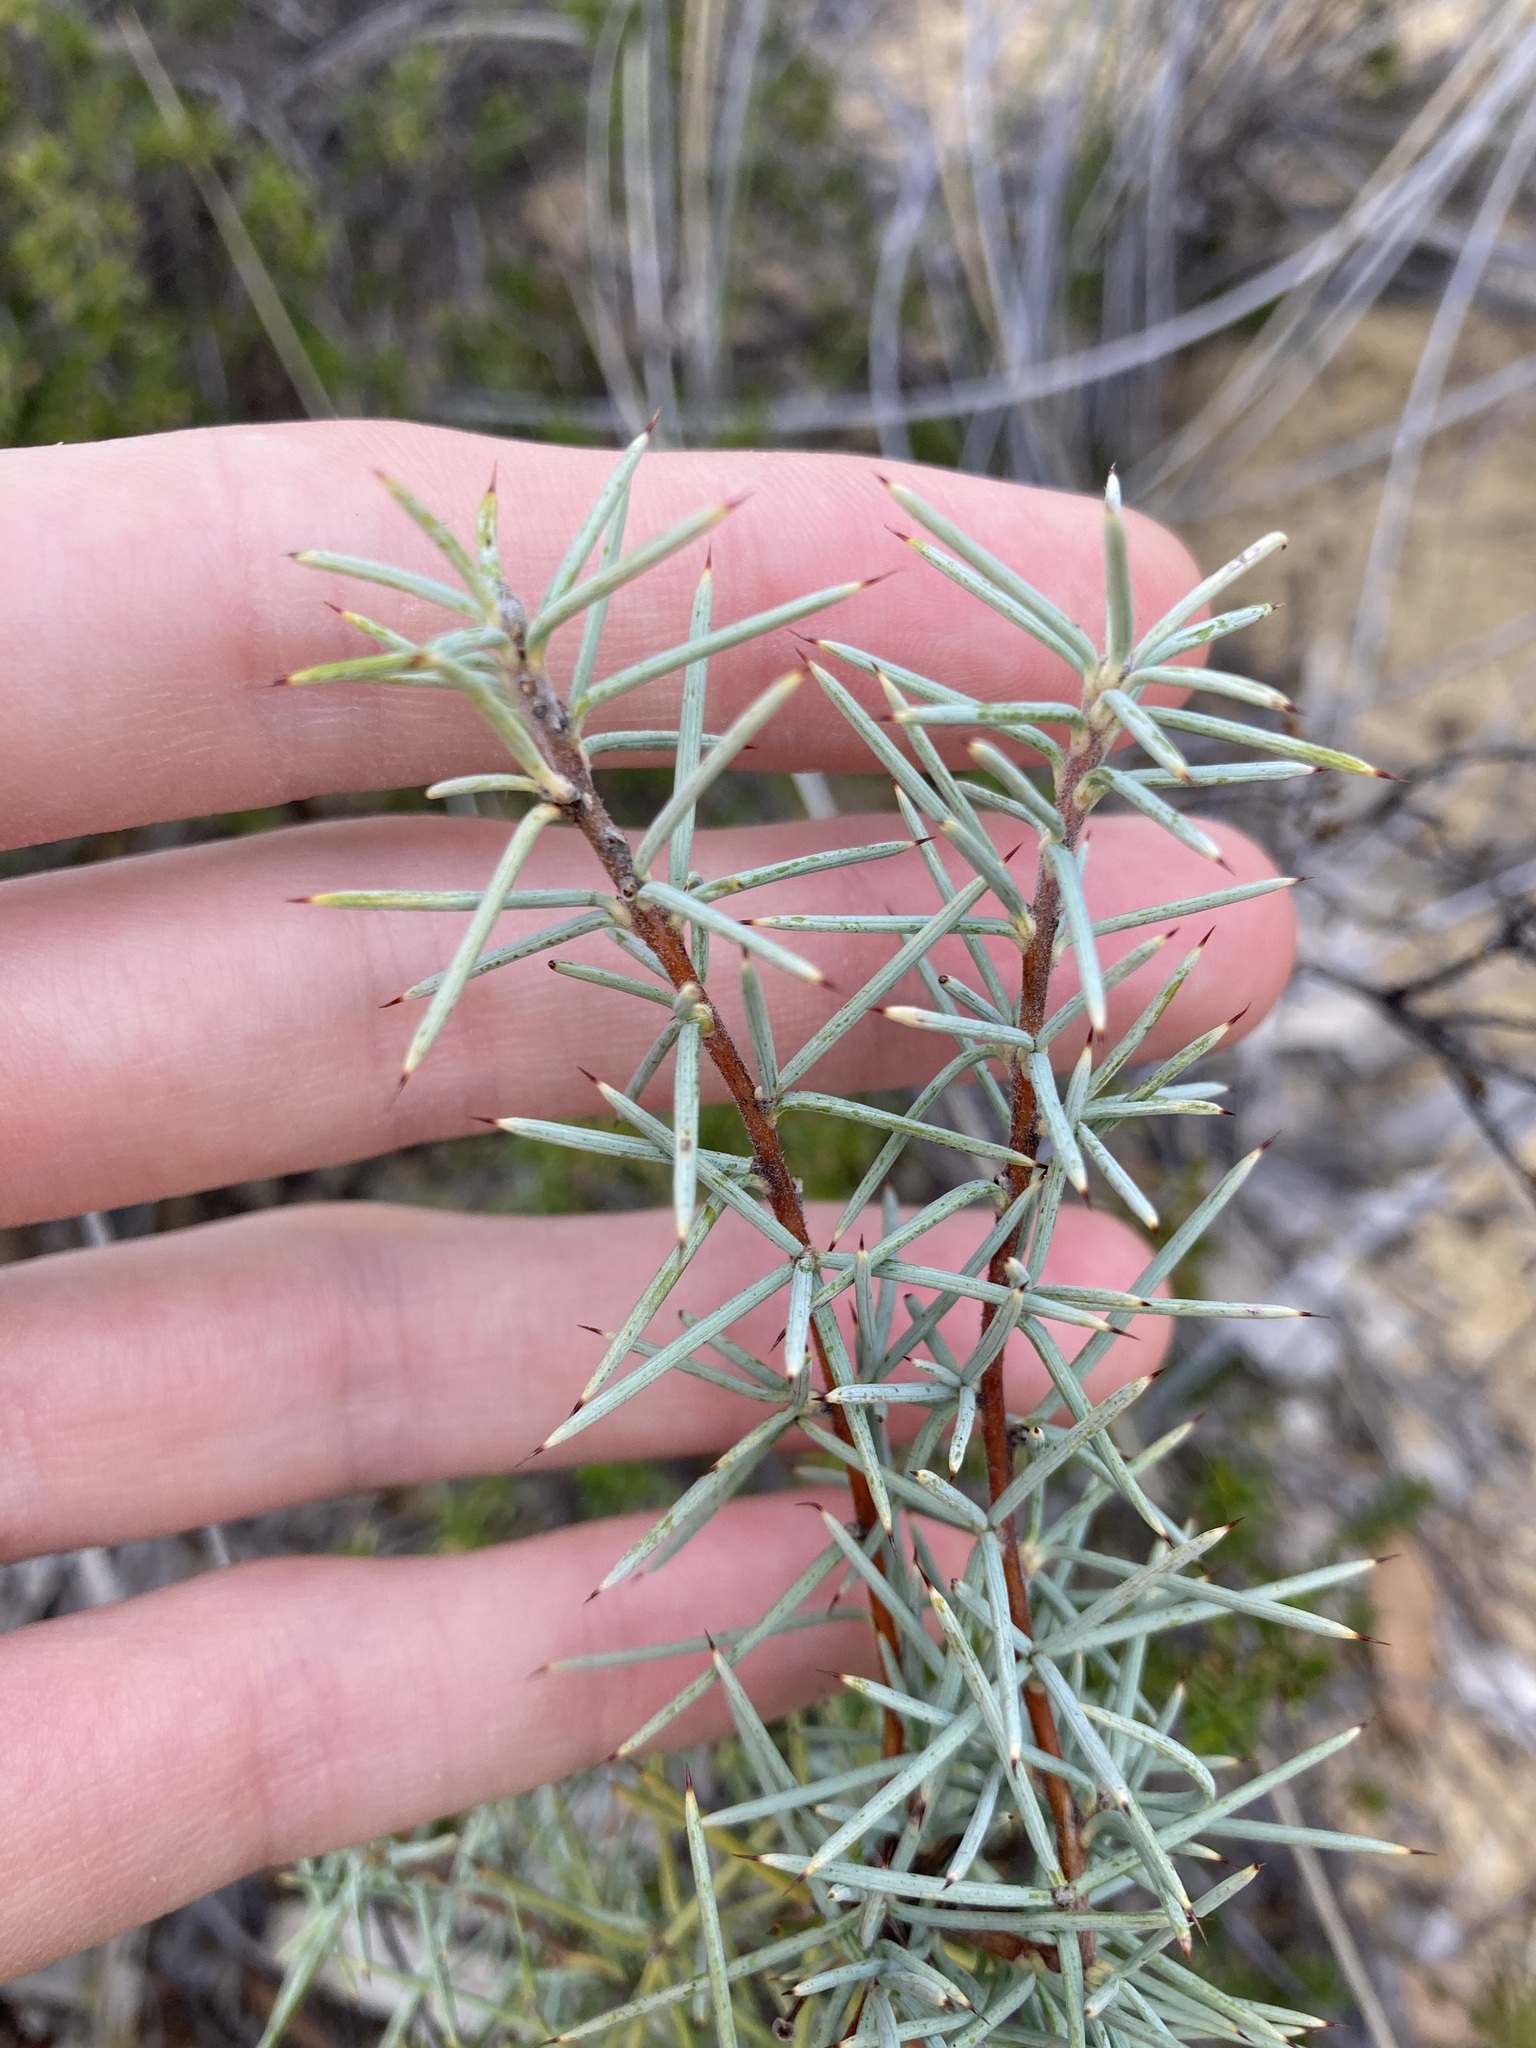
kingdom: Plantae
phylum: Tracheophyta
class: Magnoliopsida
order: Proteales
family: Proteaceae
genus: Persoonia
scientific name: Persoonia acicularis
